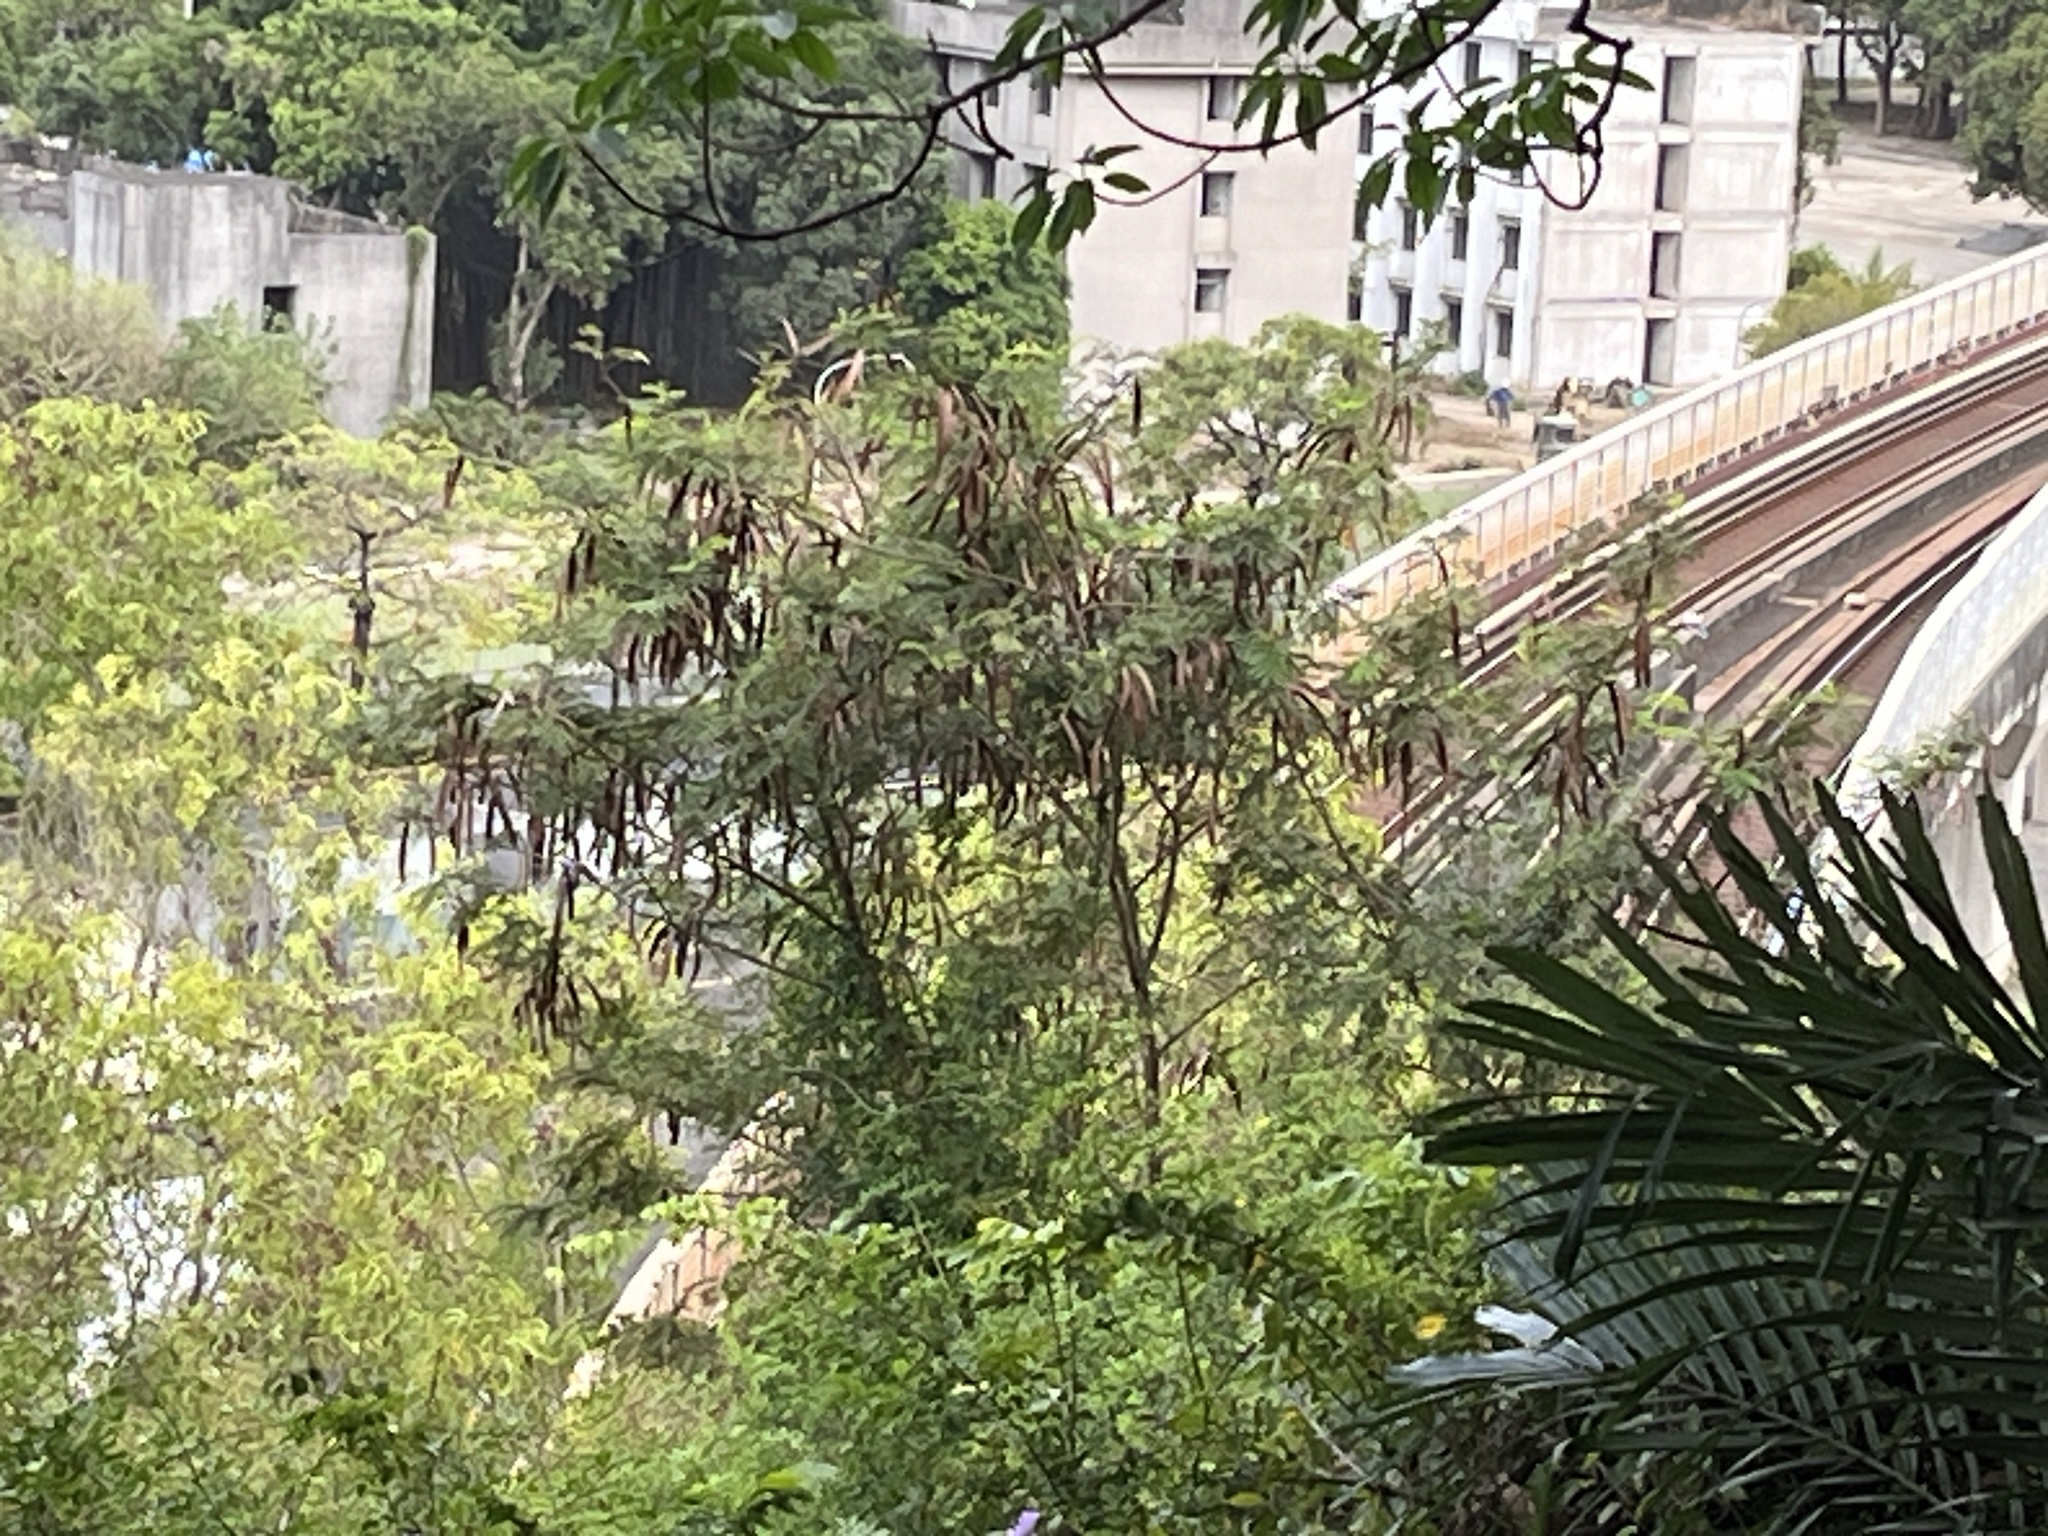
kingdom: Plantae
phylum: Tracheophyta
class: Magnoliopsida
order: Fabales
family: Fabaceae
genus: Leucaena
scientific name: Leucaena leucocephala
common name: White leadtree
